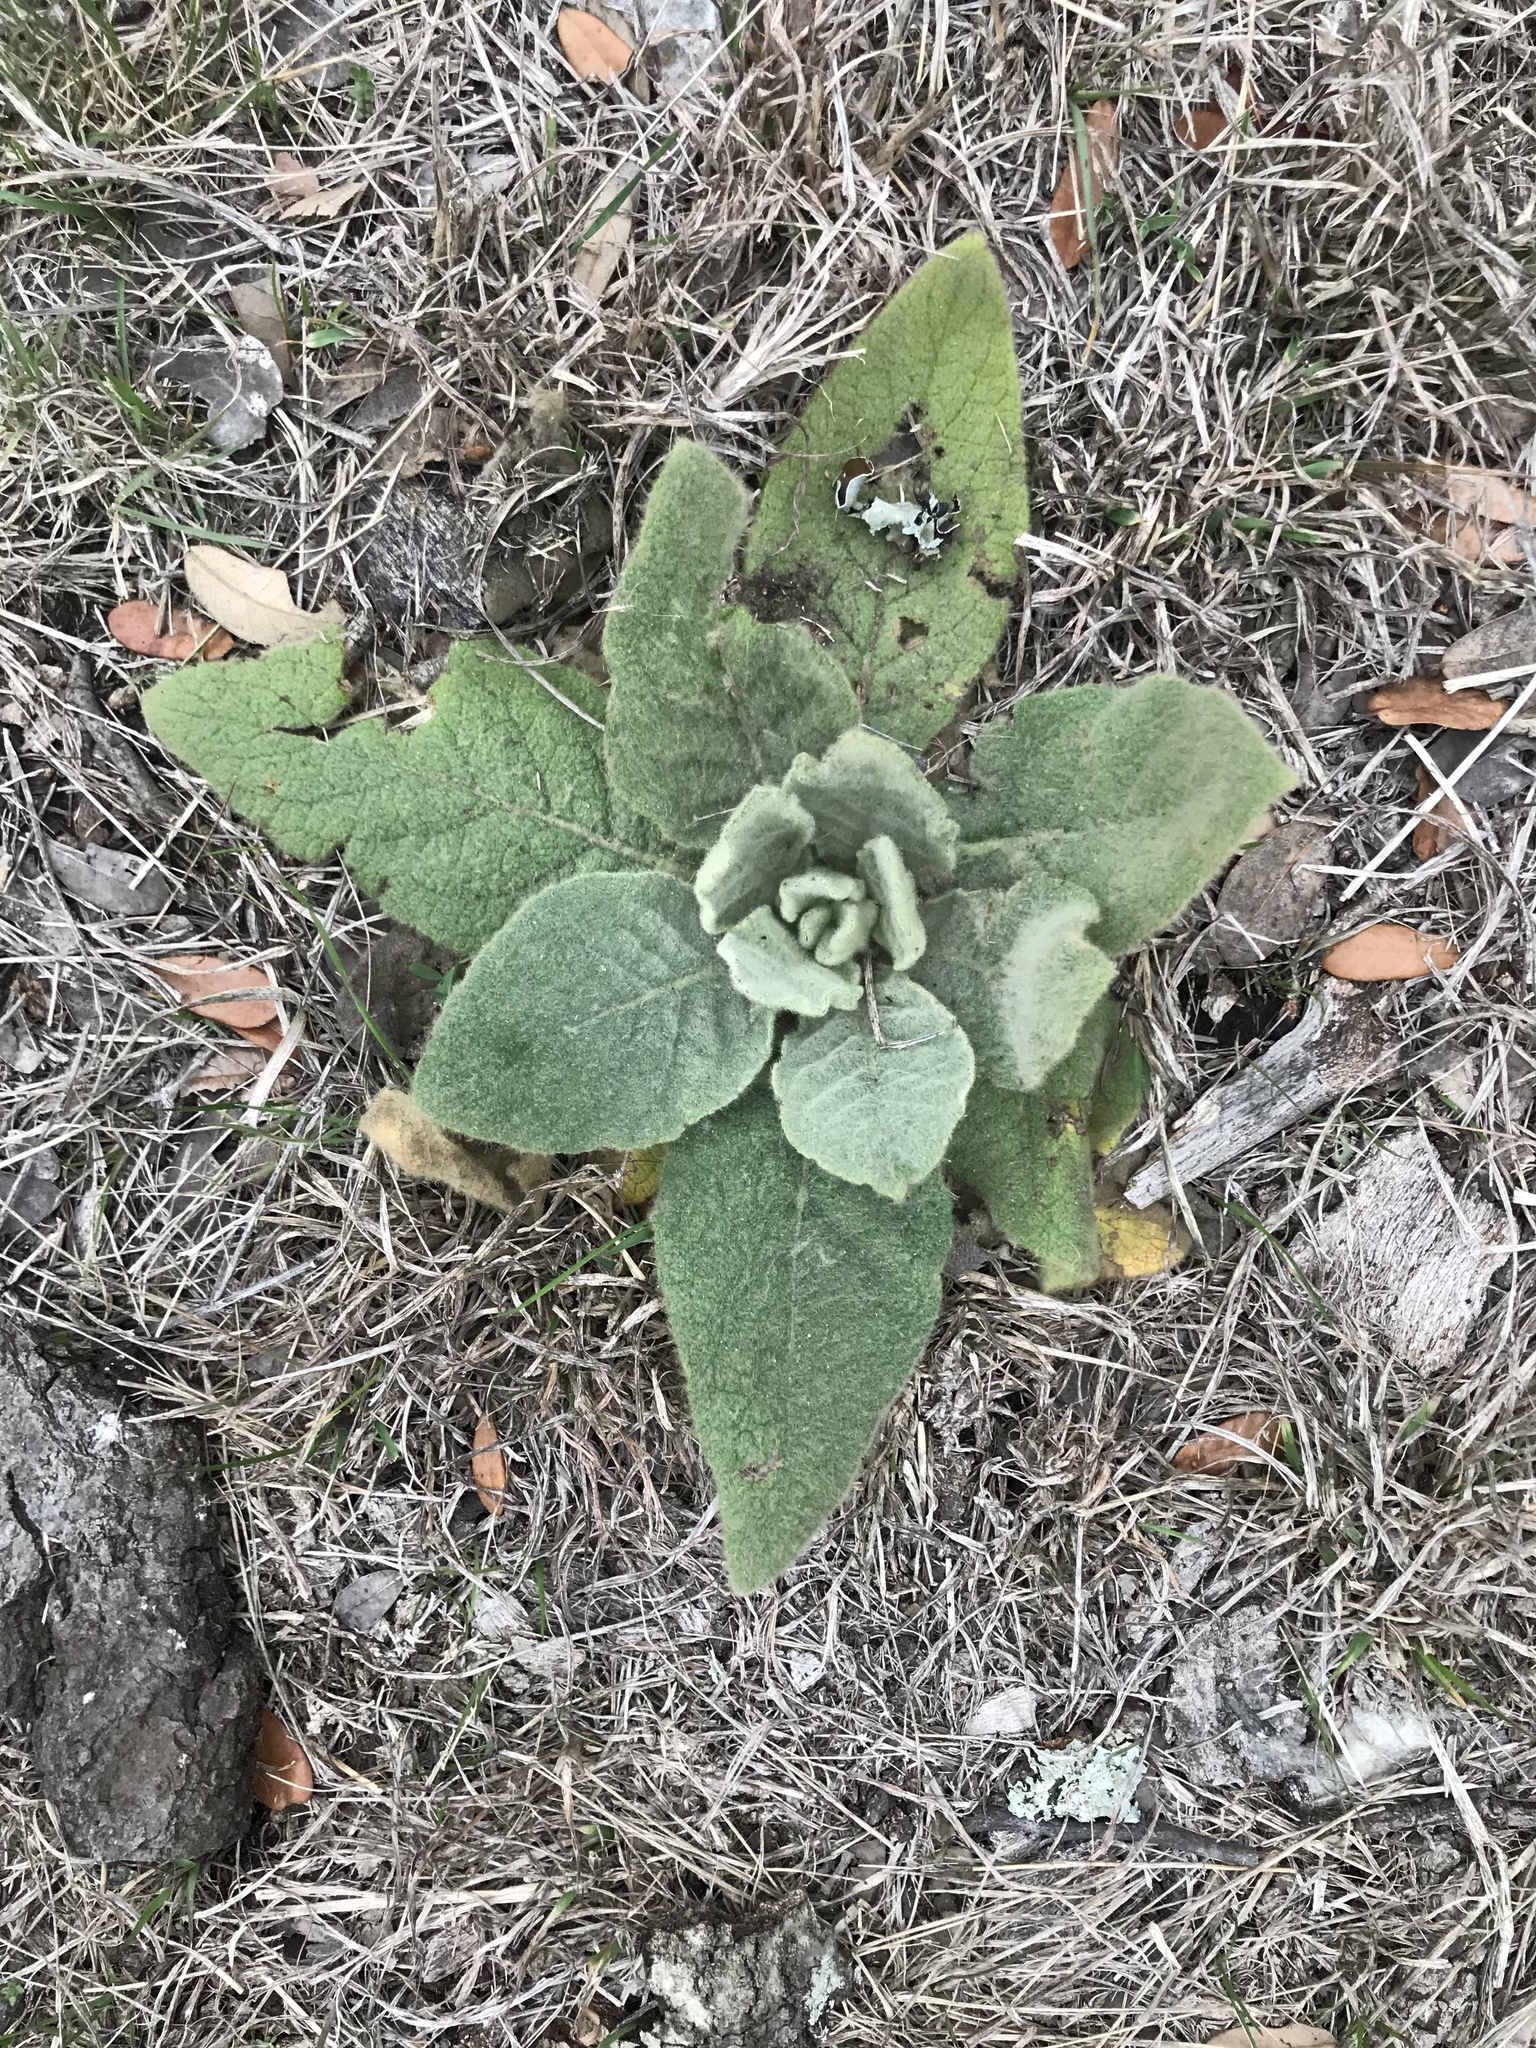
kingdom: Plantae
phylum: Tracheophyta
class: Magnoliopsida
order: Lamiales
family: Scrophulariaceae
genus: Verbascum
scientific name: Verbascum thapsus
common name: Common mullein
